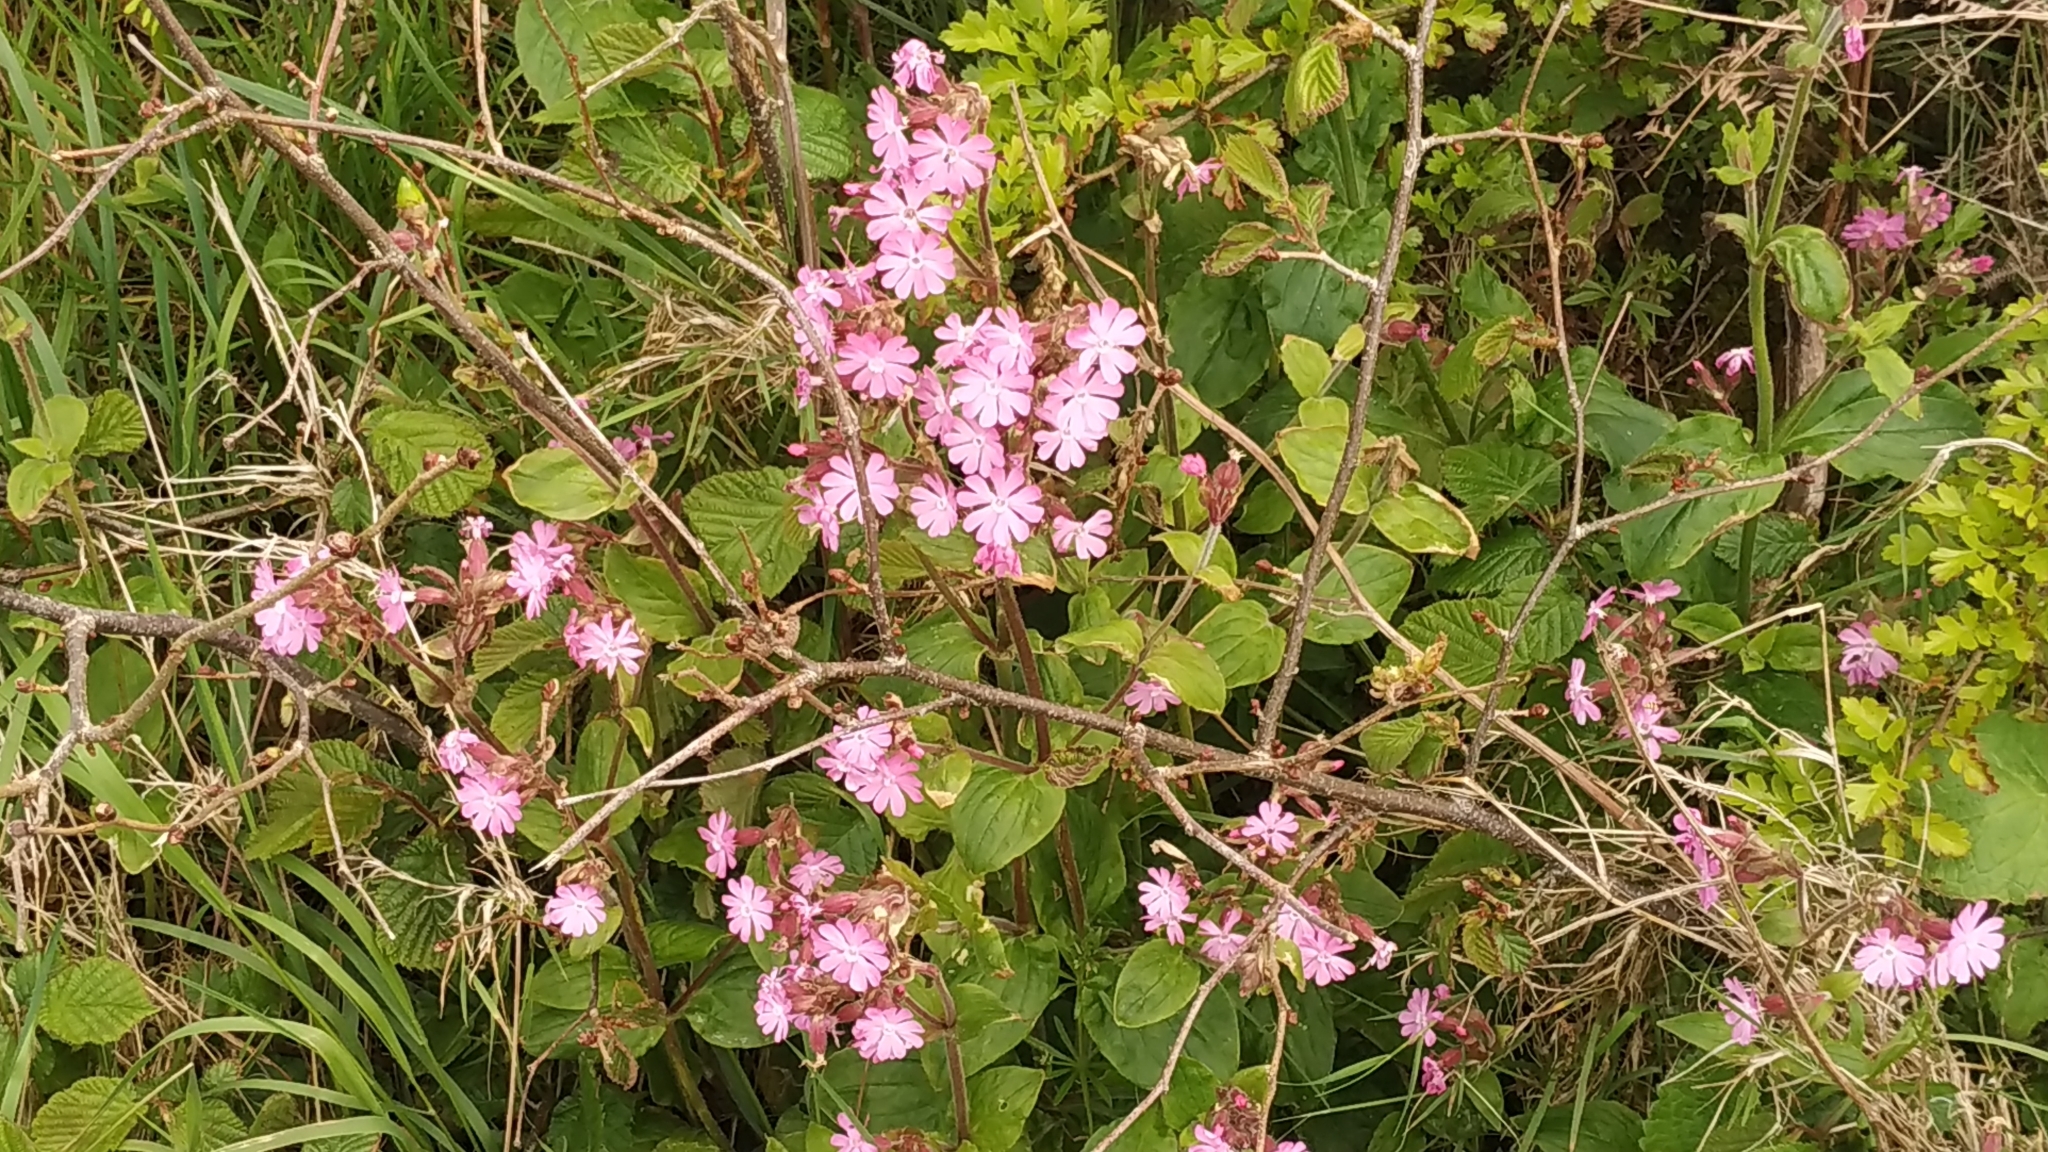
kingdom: Plantae
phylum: Tracheophyta
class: Magnoliopsida
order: Caryophyllales
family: Caryophyllaceae
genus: Silene
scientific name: Silene dioica
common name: Red campion
